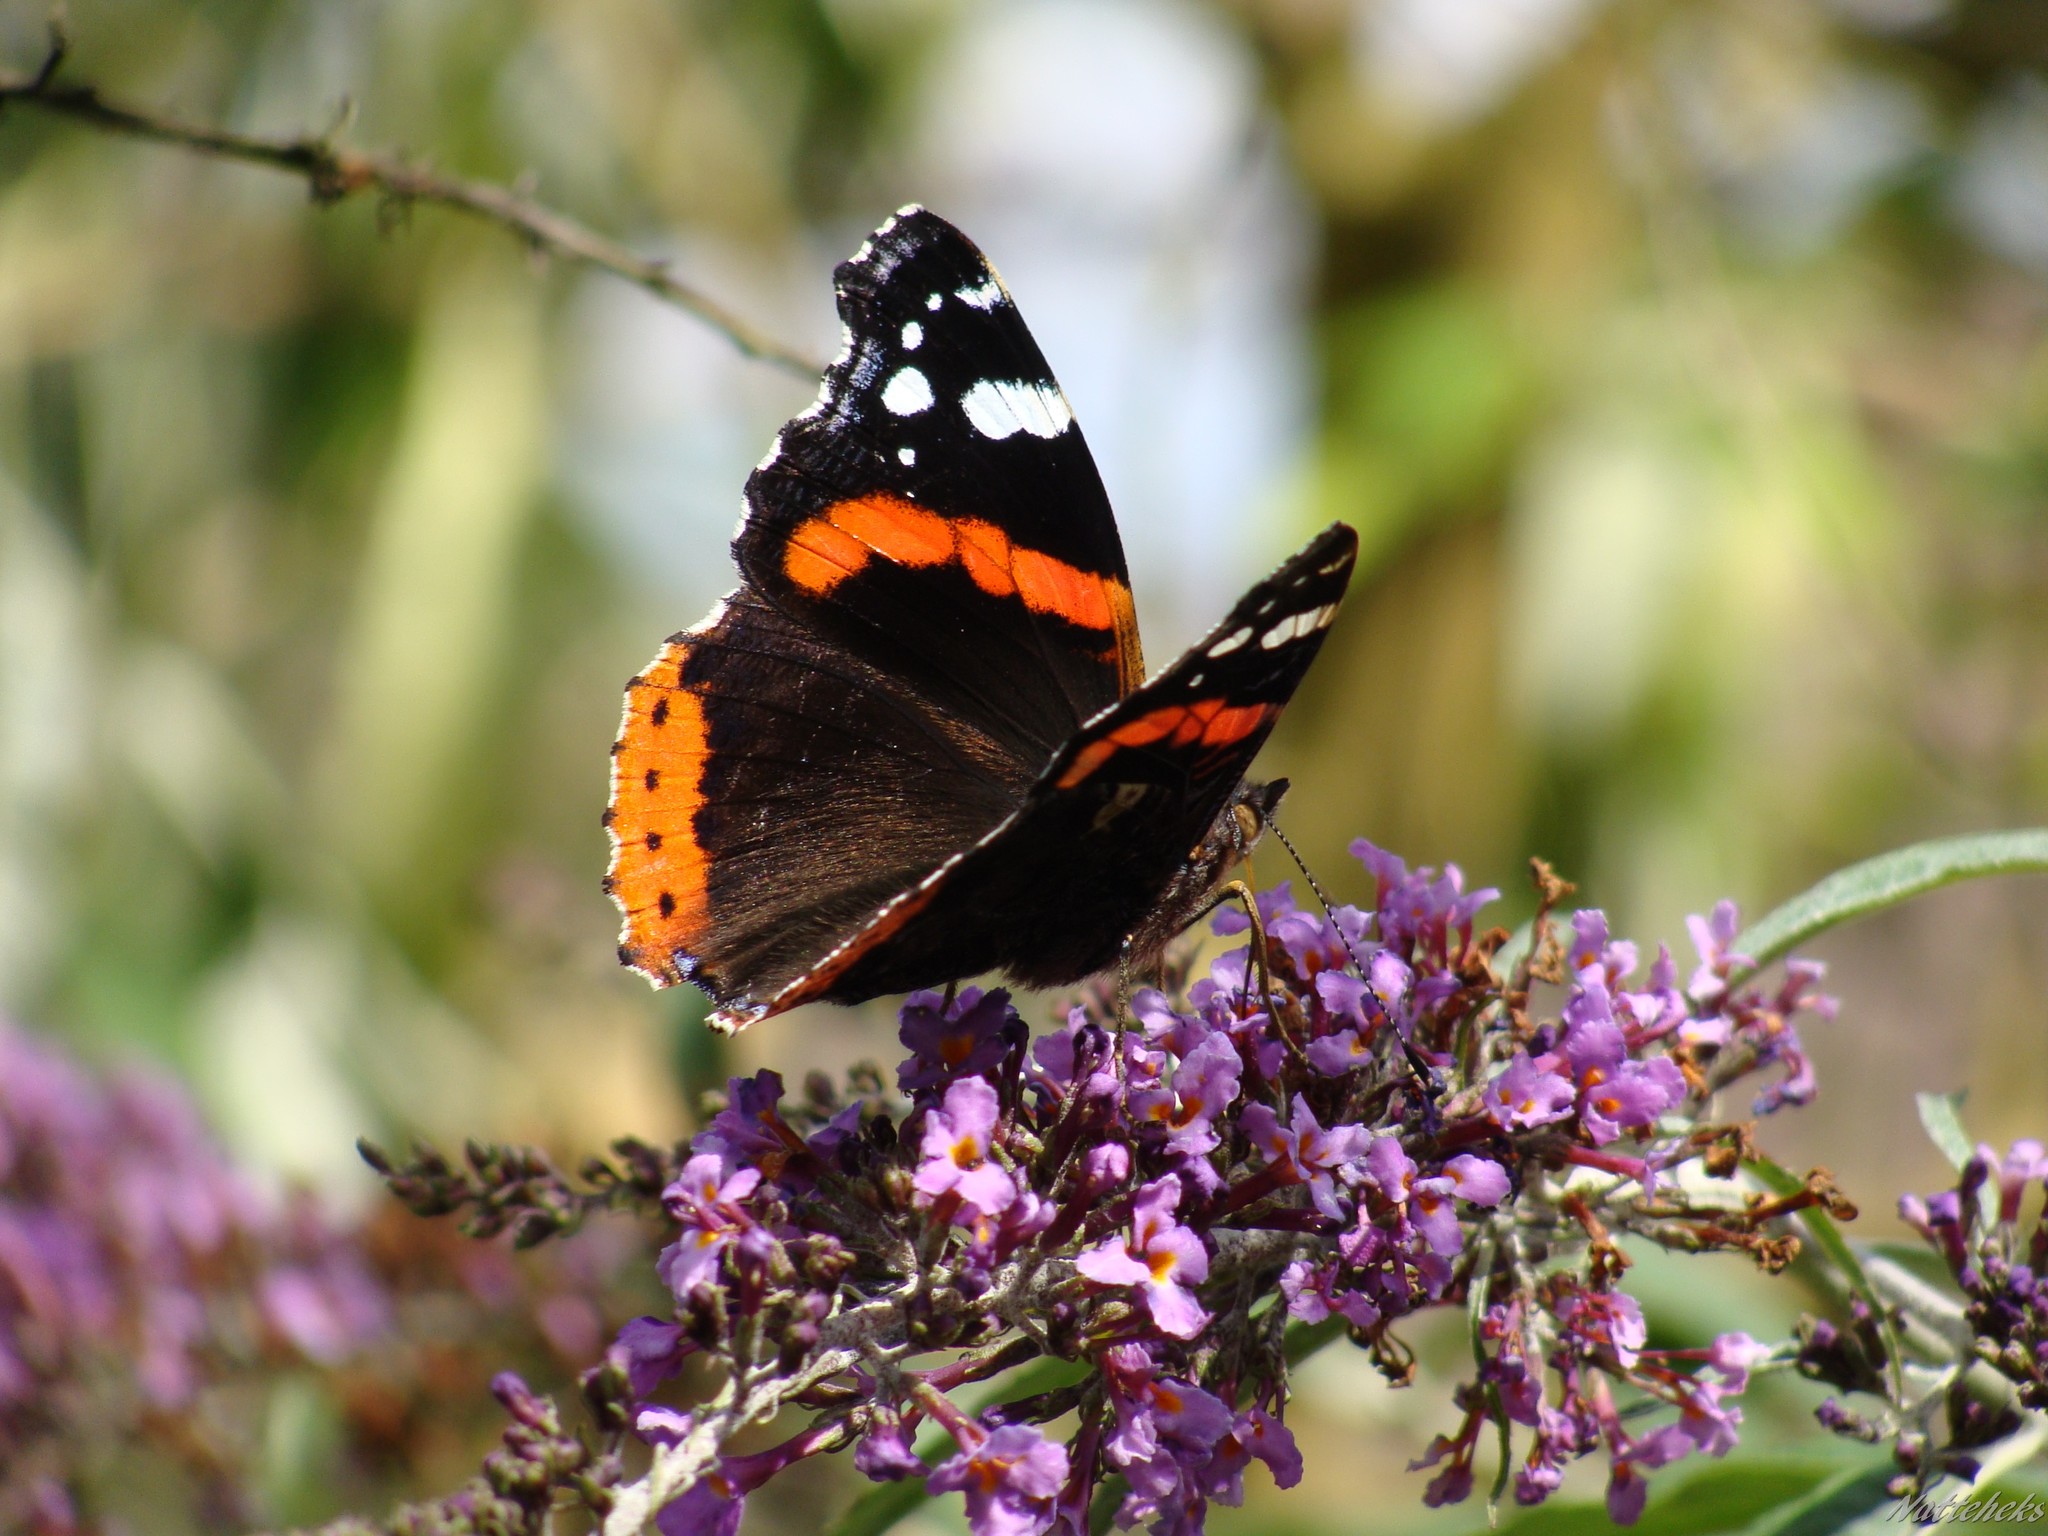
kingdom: Animalia
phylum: Arthropoda
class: Insecta
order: Lepidoptera
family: Nymphalidae
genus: Vanessa
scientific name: Vanessa atalanta
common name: Red admiral
